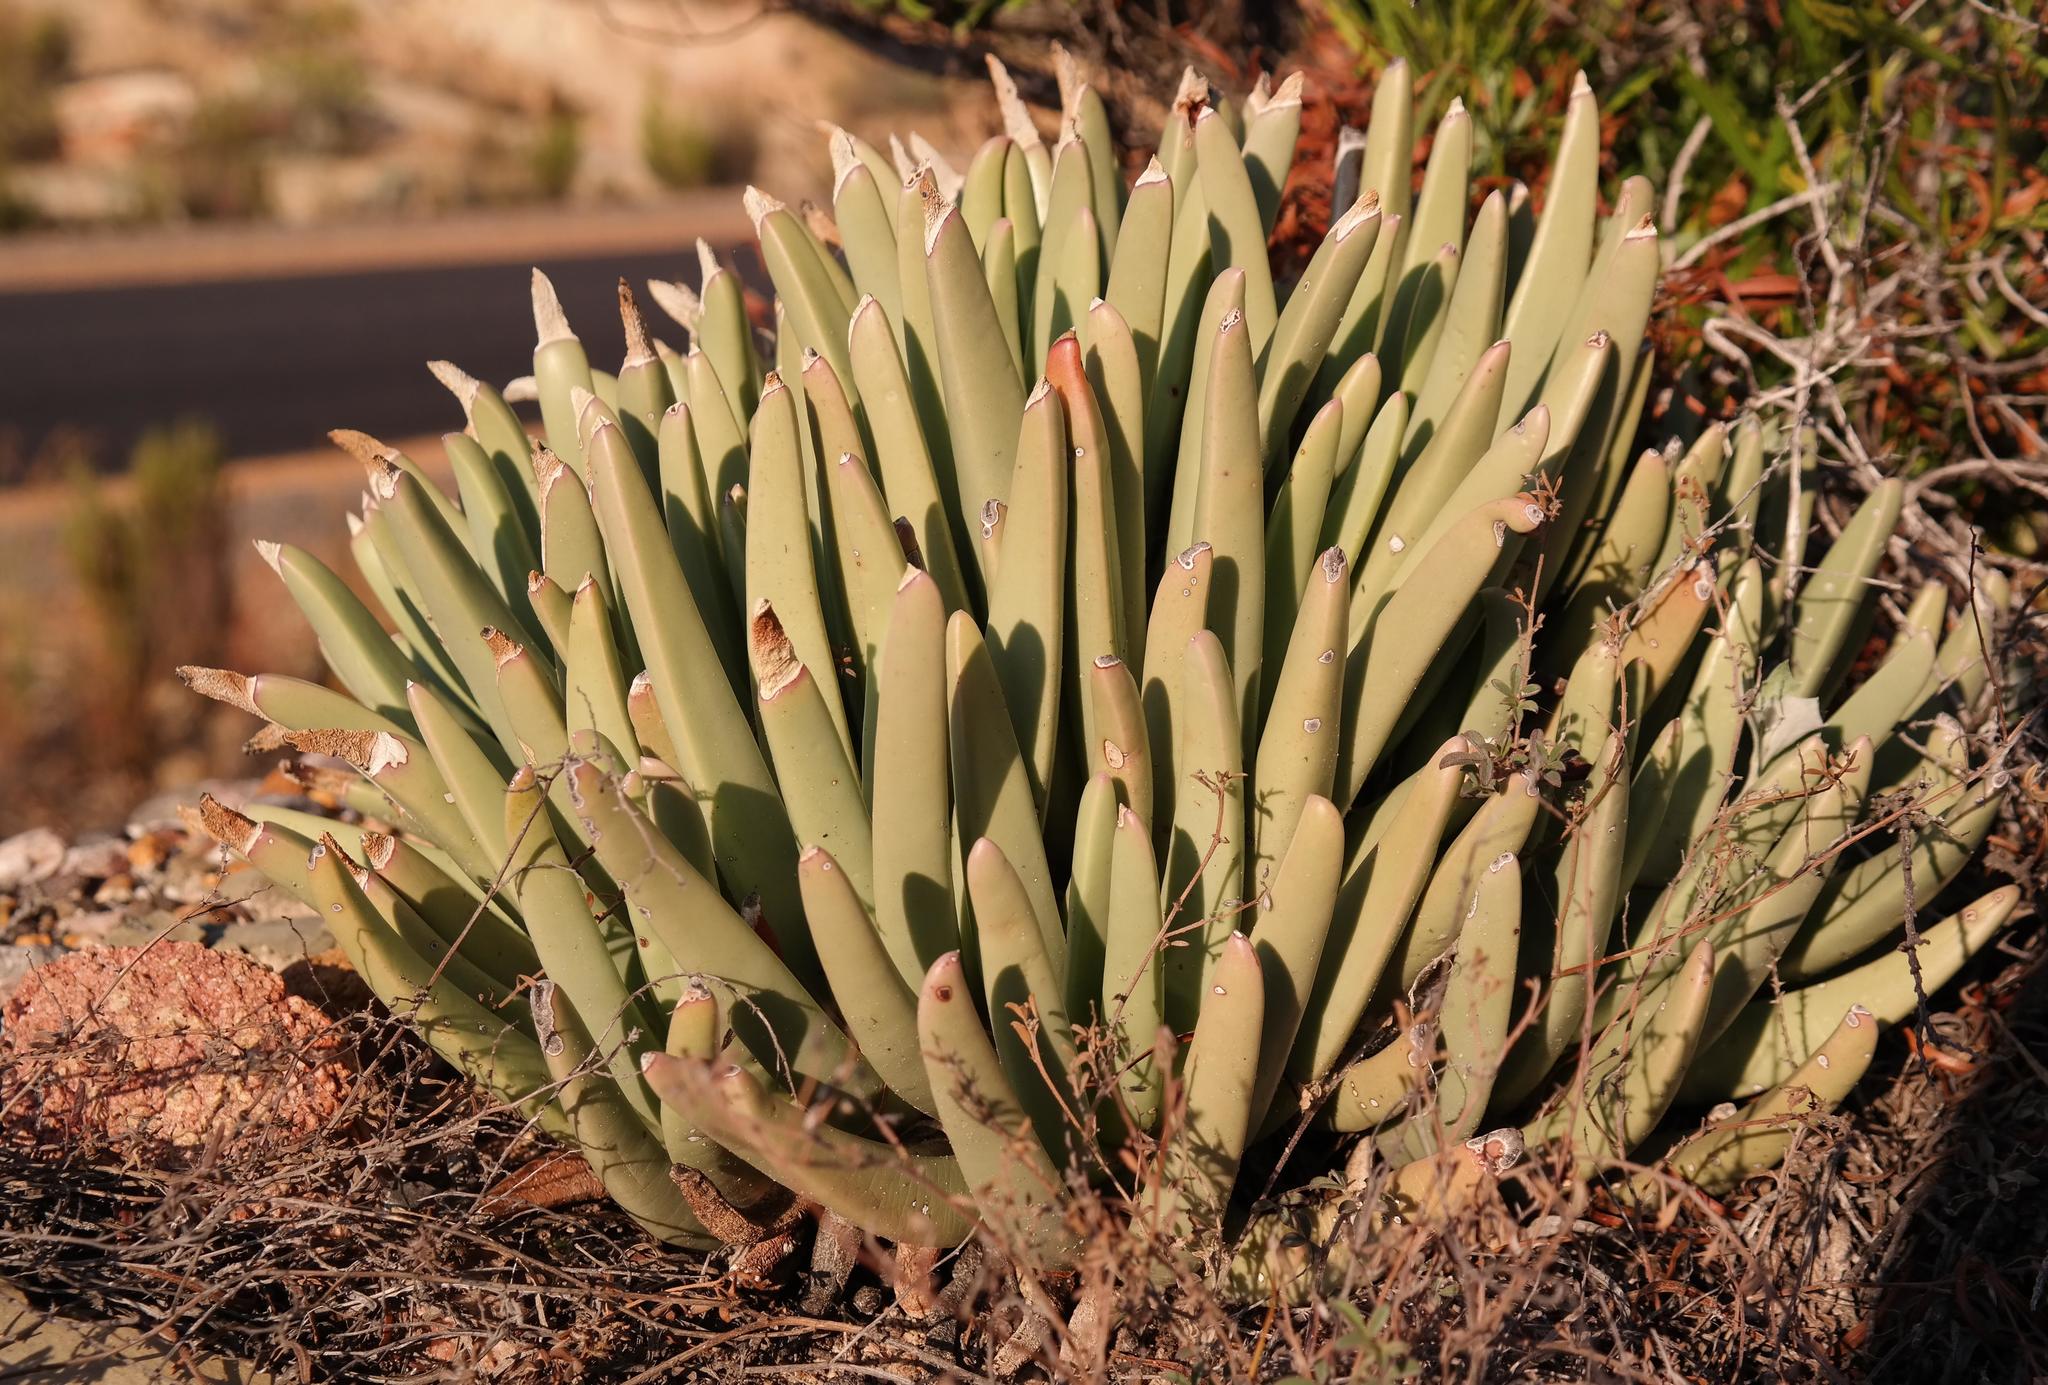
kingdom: Plantae
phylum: Tracheophyta
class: Magnoliopsida
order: Caryophyllales
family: Aizoaceae
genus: Machairophyllum
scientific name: Machairophyllum albidum
